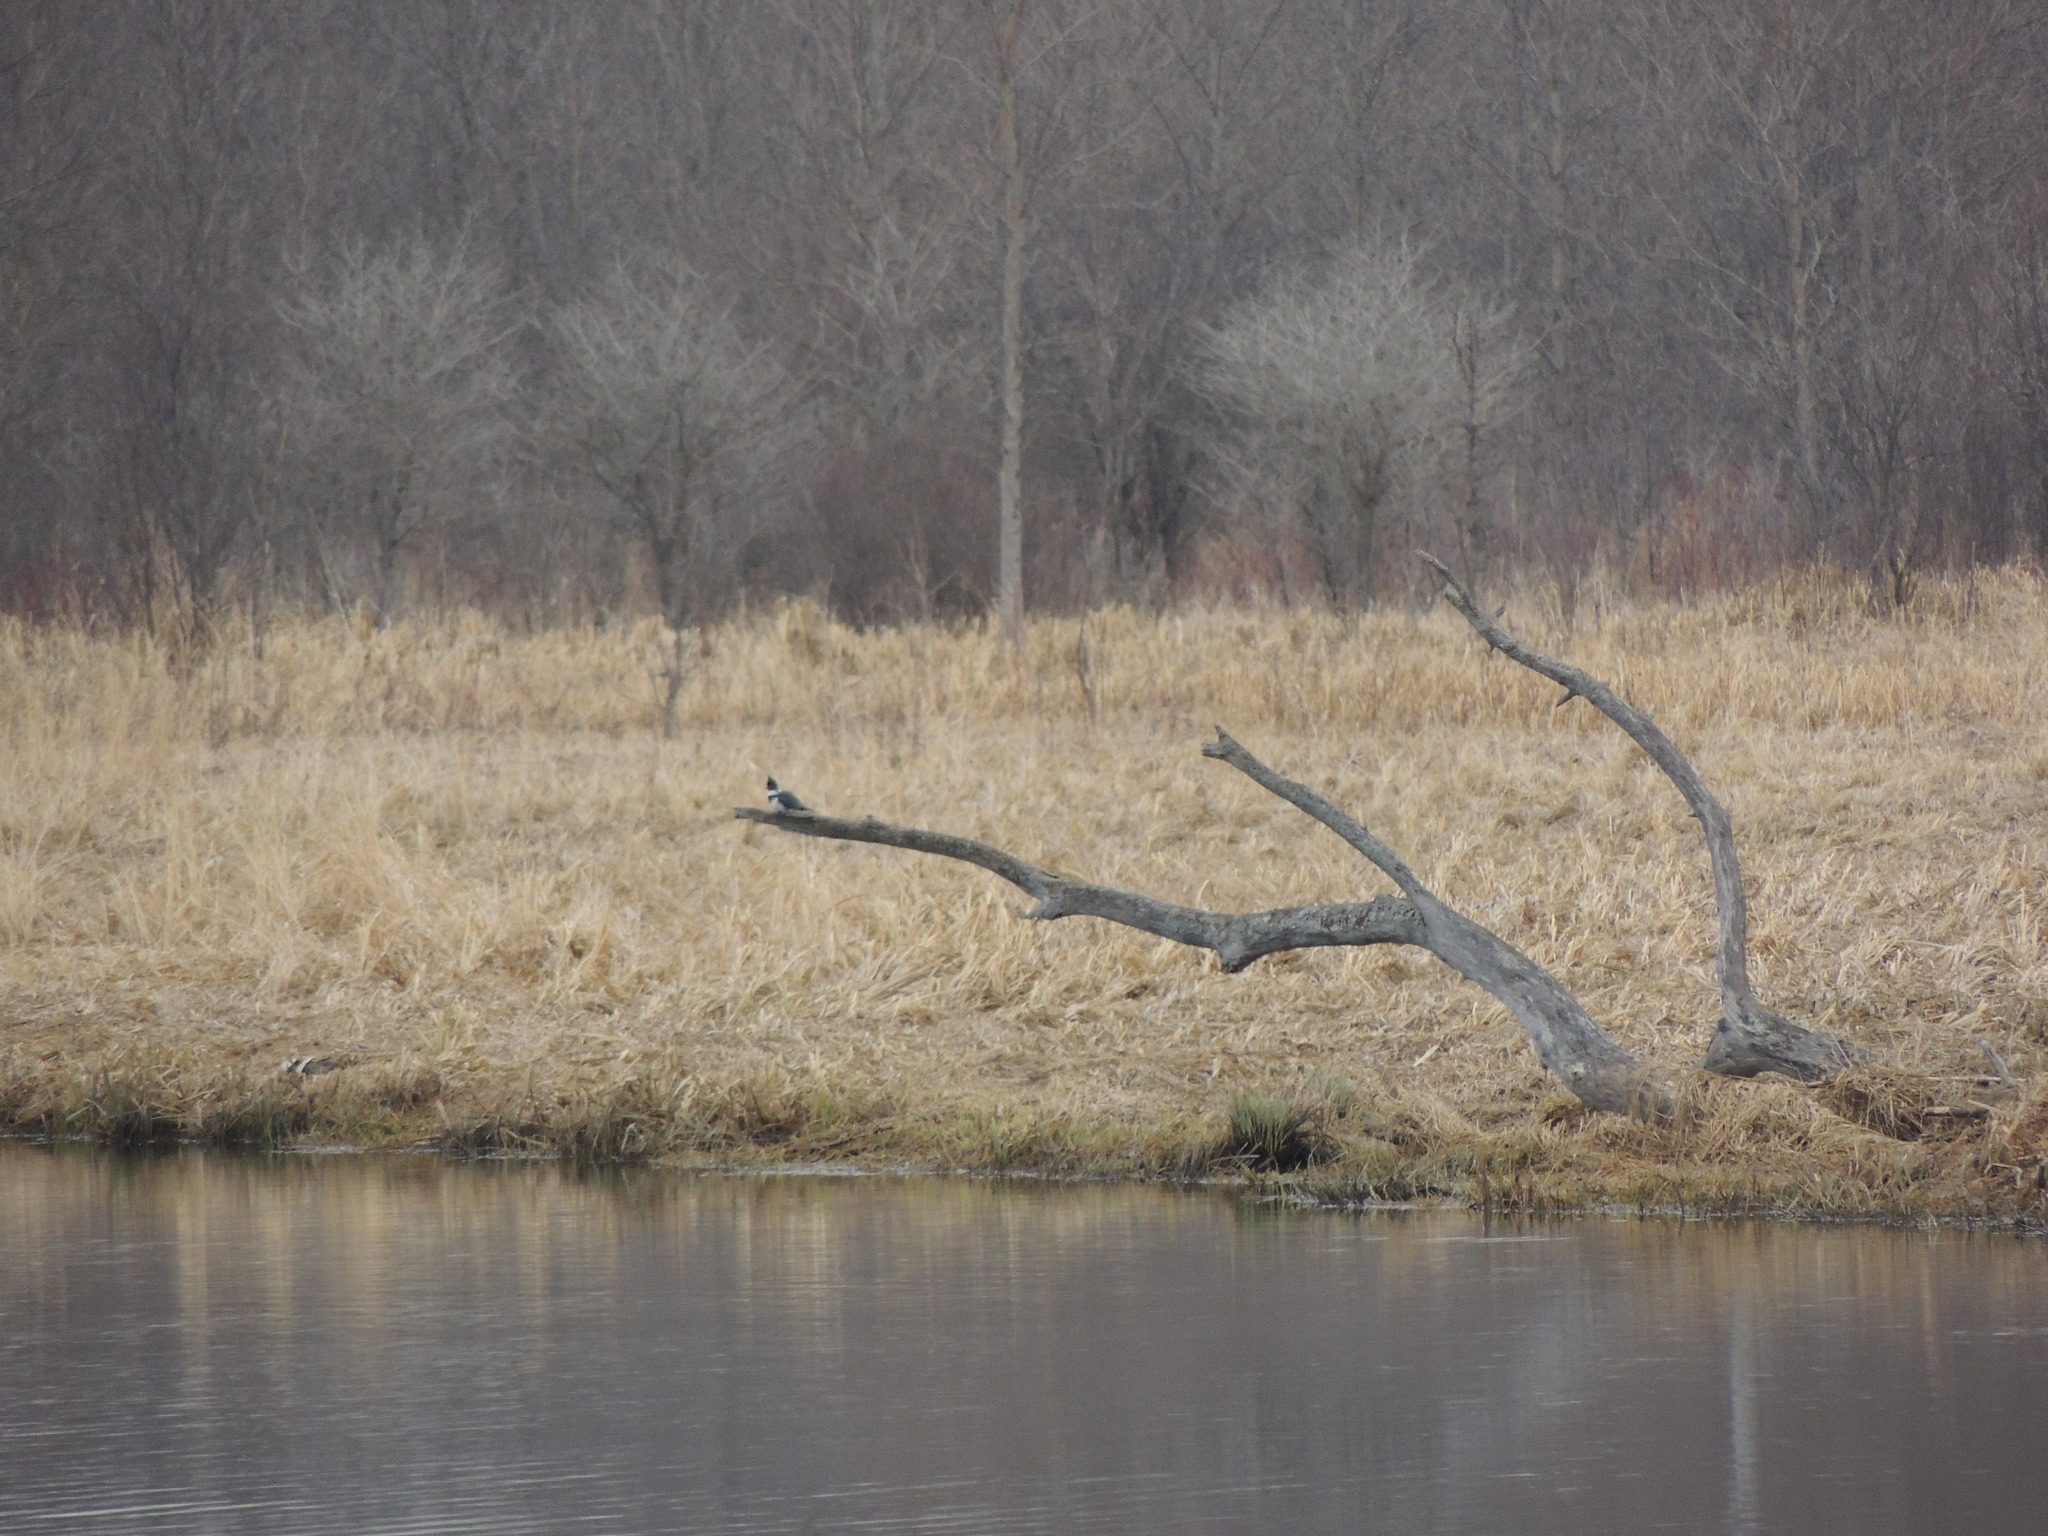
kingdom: Animalia
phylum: Chordata
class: Aves
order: Coraciiformes
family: Alcedinidae
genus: Megaceryle
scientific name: Megaceryle alcyon
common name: Belted kingfisher
